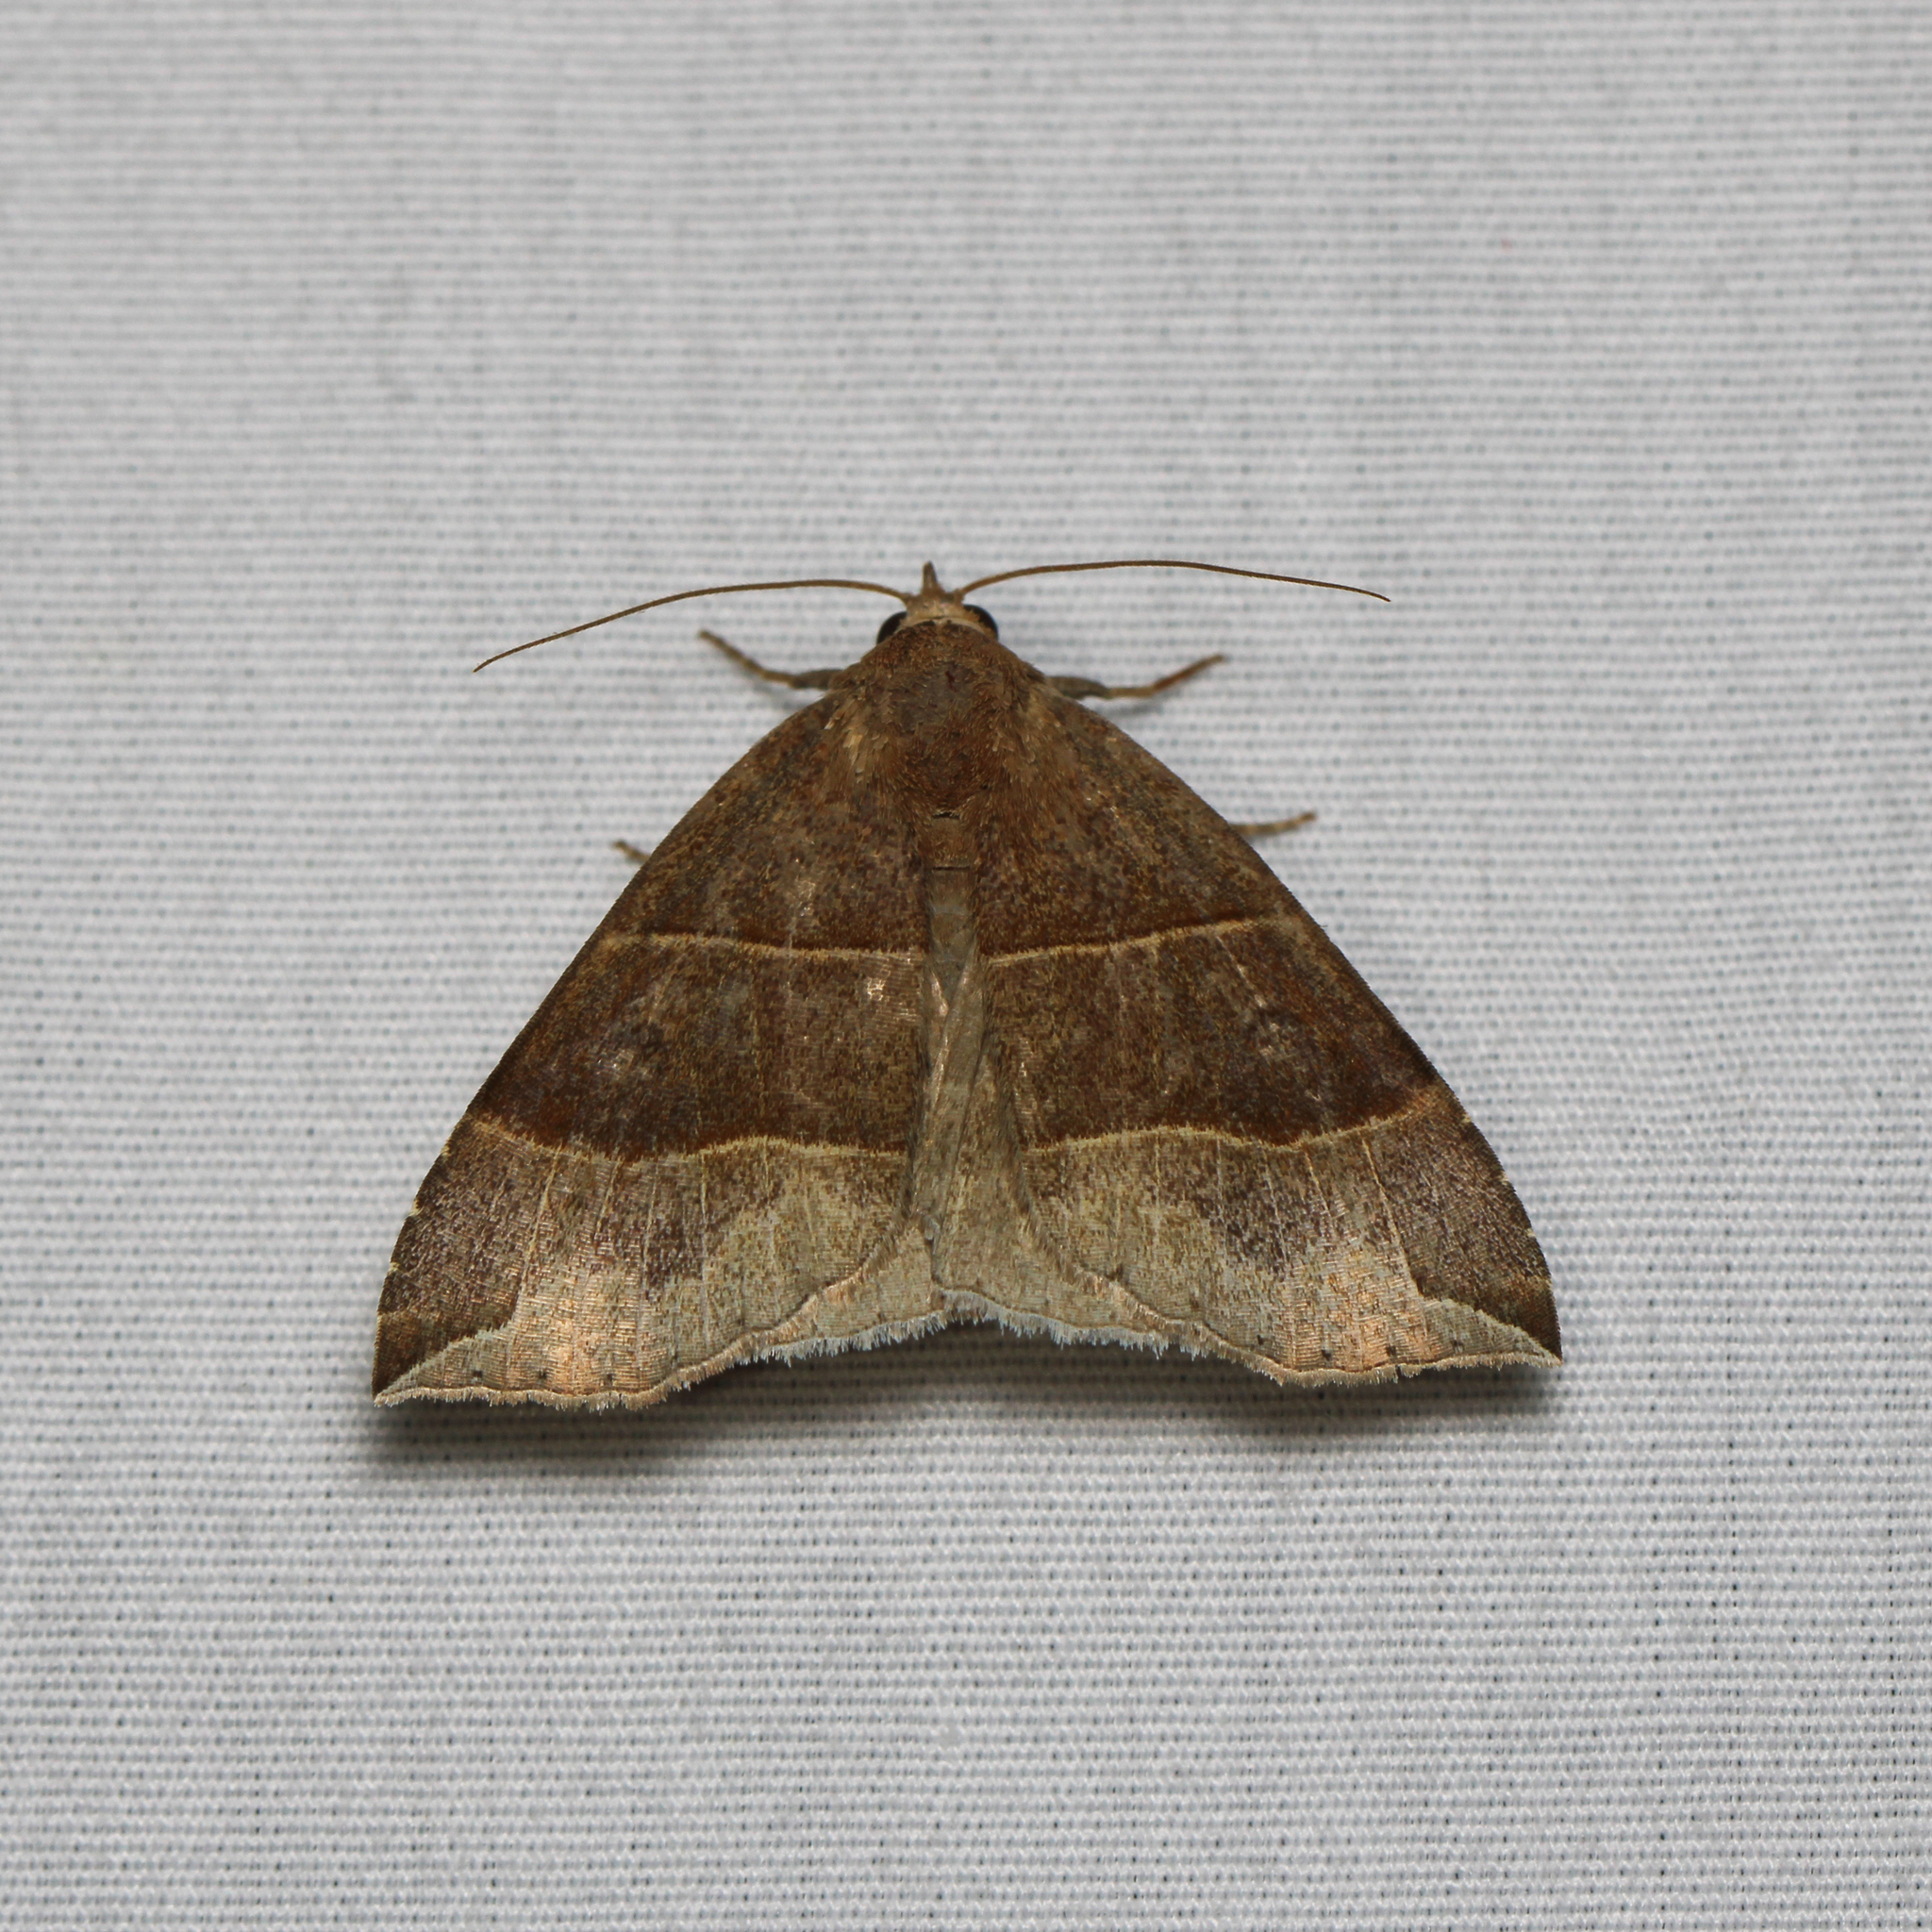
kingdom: Animalia
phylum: Arthropoda
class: Insecta
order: Lepidoptera
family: Erebidae
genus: Parallelia
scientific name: Parallelia bistriaris
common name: Maple looper moth
